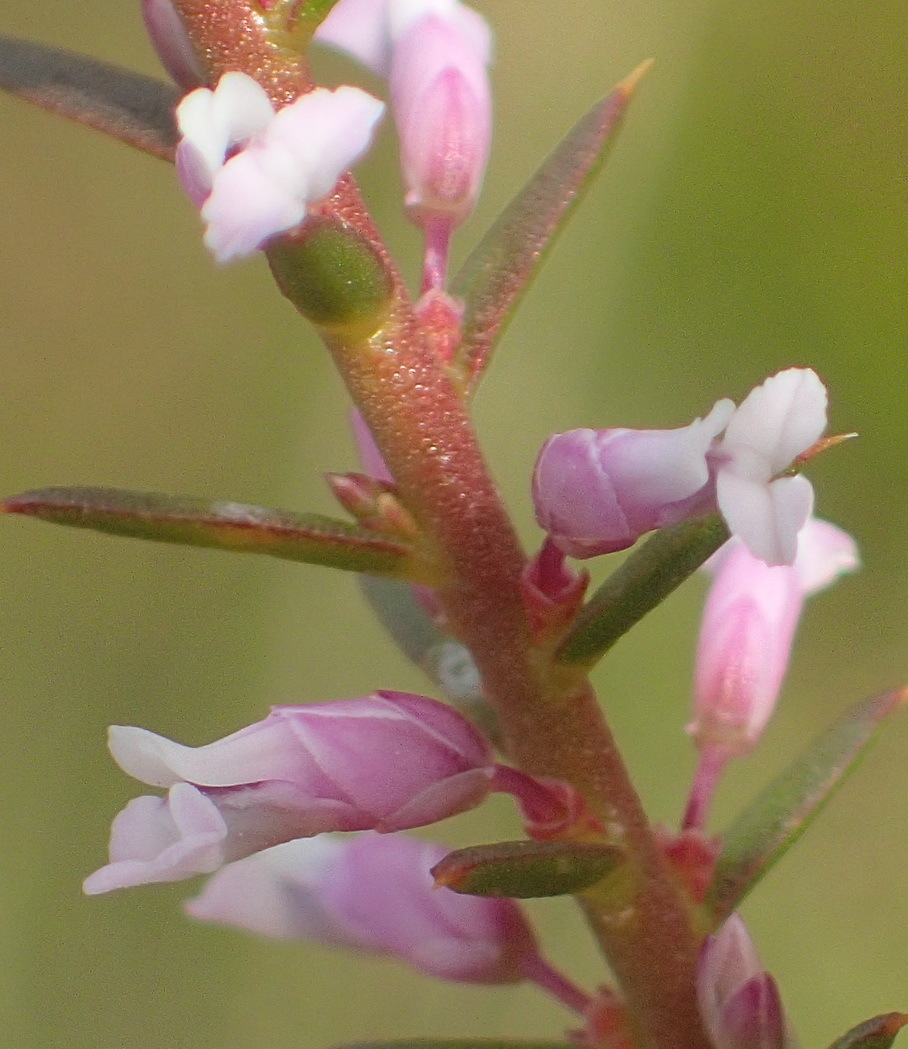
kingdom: Plantae
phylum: Tracheophyta
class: Magnoliopsida
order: Fabales
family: Polygalaceae
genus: Muraltia
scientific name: Muraltia juniperifolia
